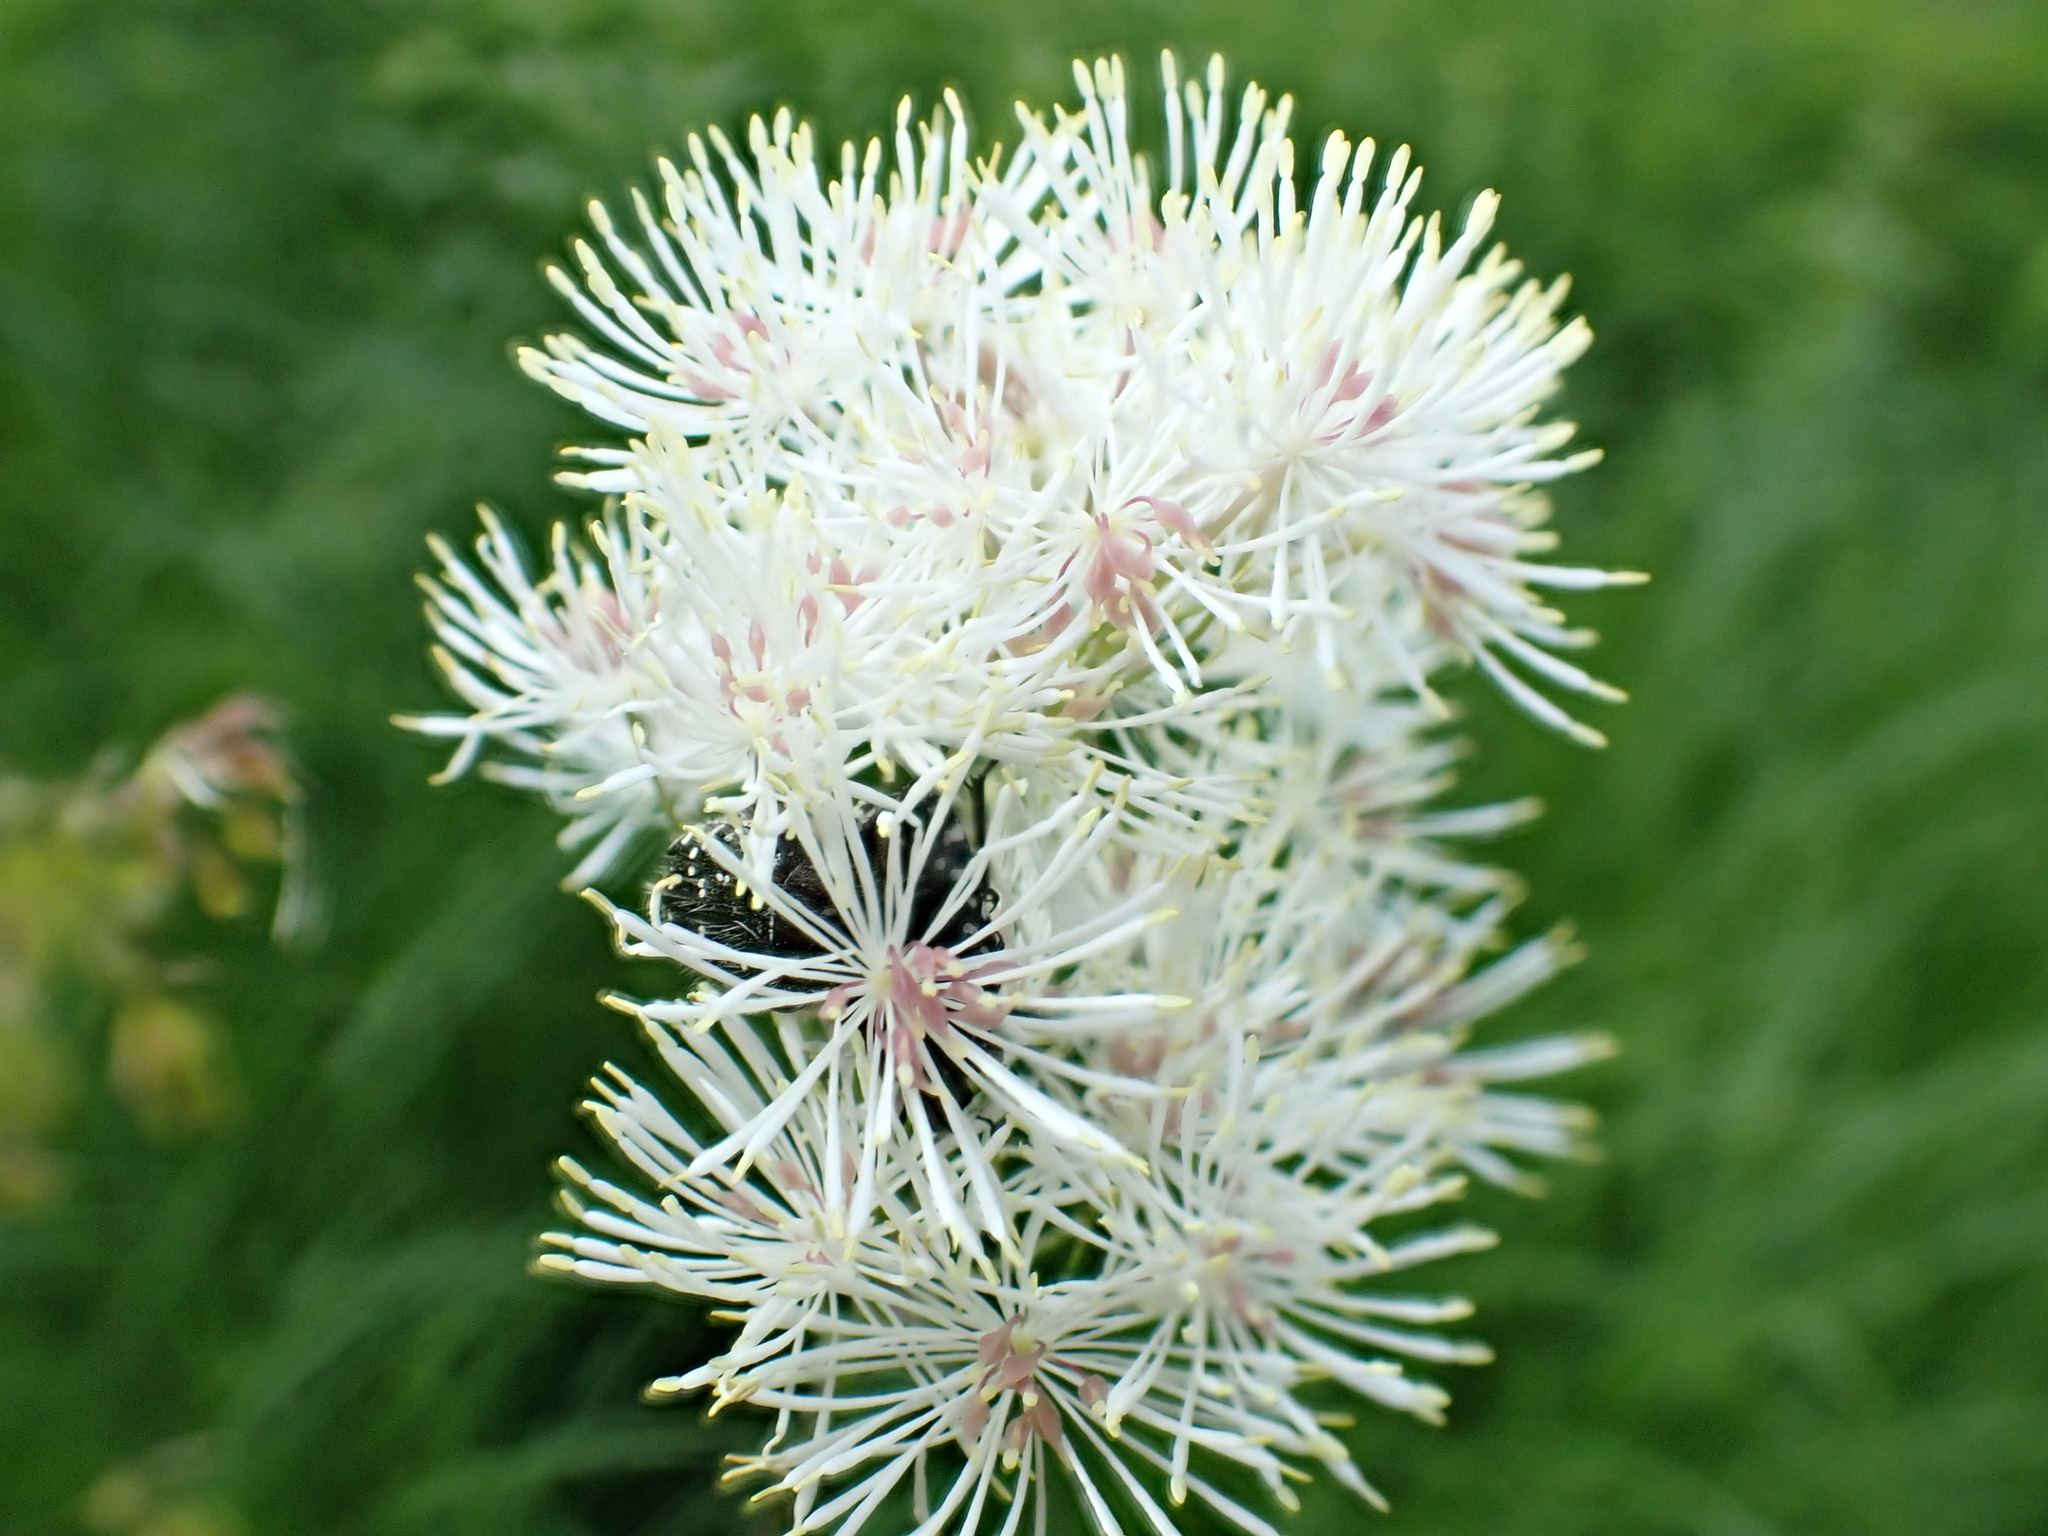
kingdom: Plantae
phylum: Tracheophyta
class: Magnoliopsida
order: Ranunculales
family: Ranunculaceae
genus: Thalictrum
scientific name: Thalictrum aquilegiifolium
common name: French meadow-rue
